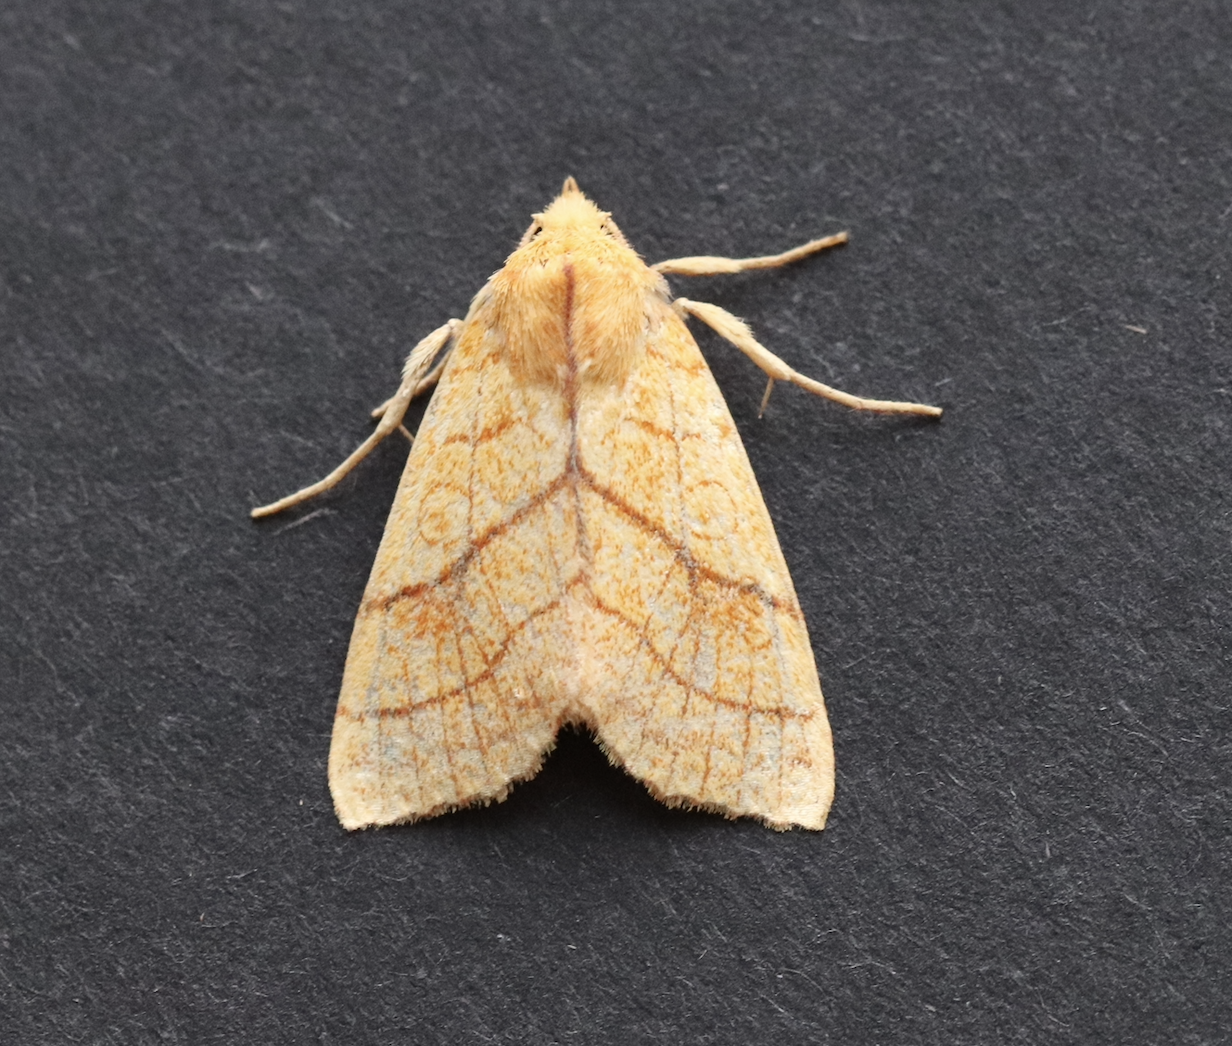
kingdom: Animalia
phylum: Arthropoda
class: Insecta
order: Lepidoptera
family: Noctuidae
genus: Tiliacea
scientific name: Tiliacea citrago
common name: Orange sallow
